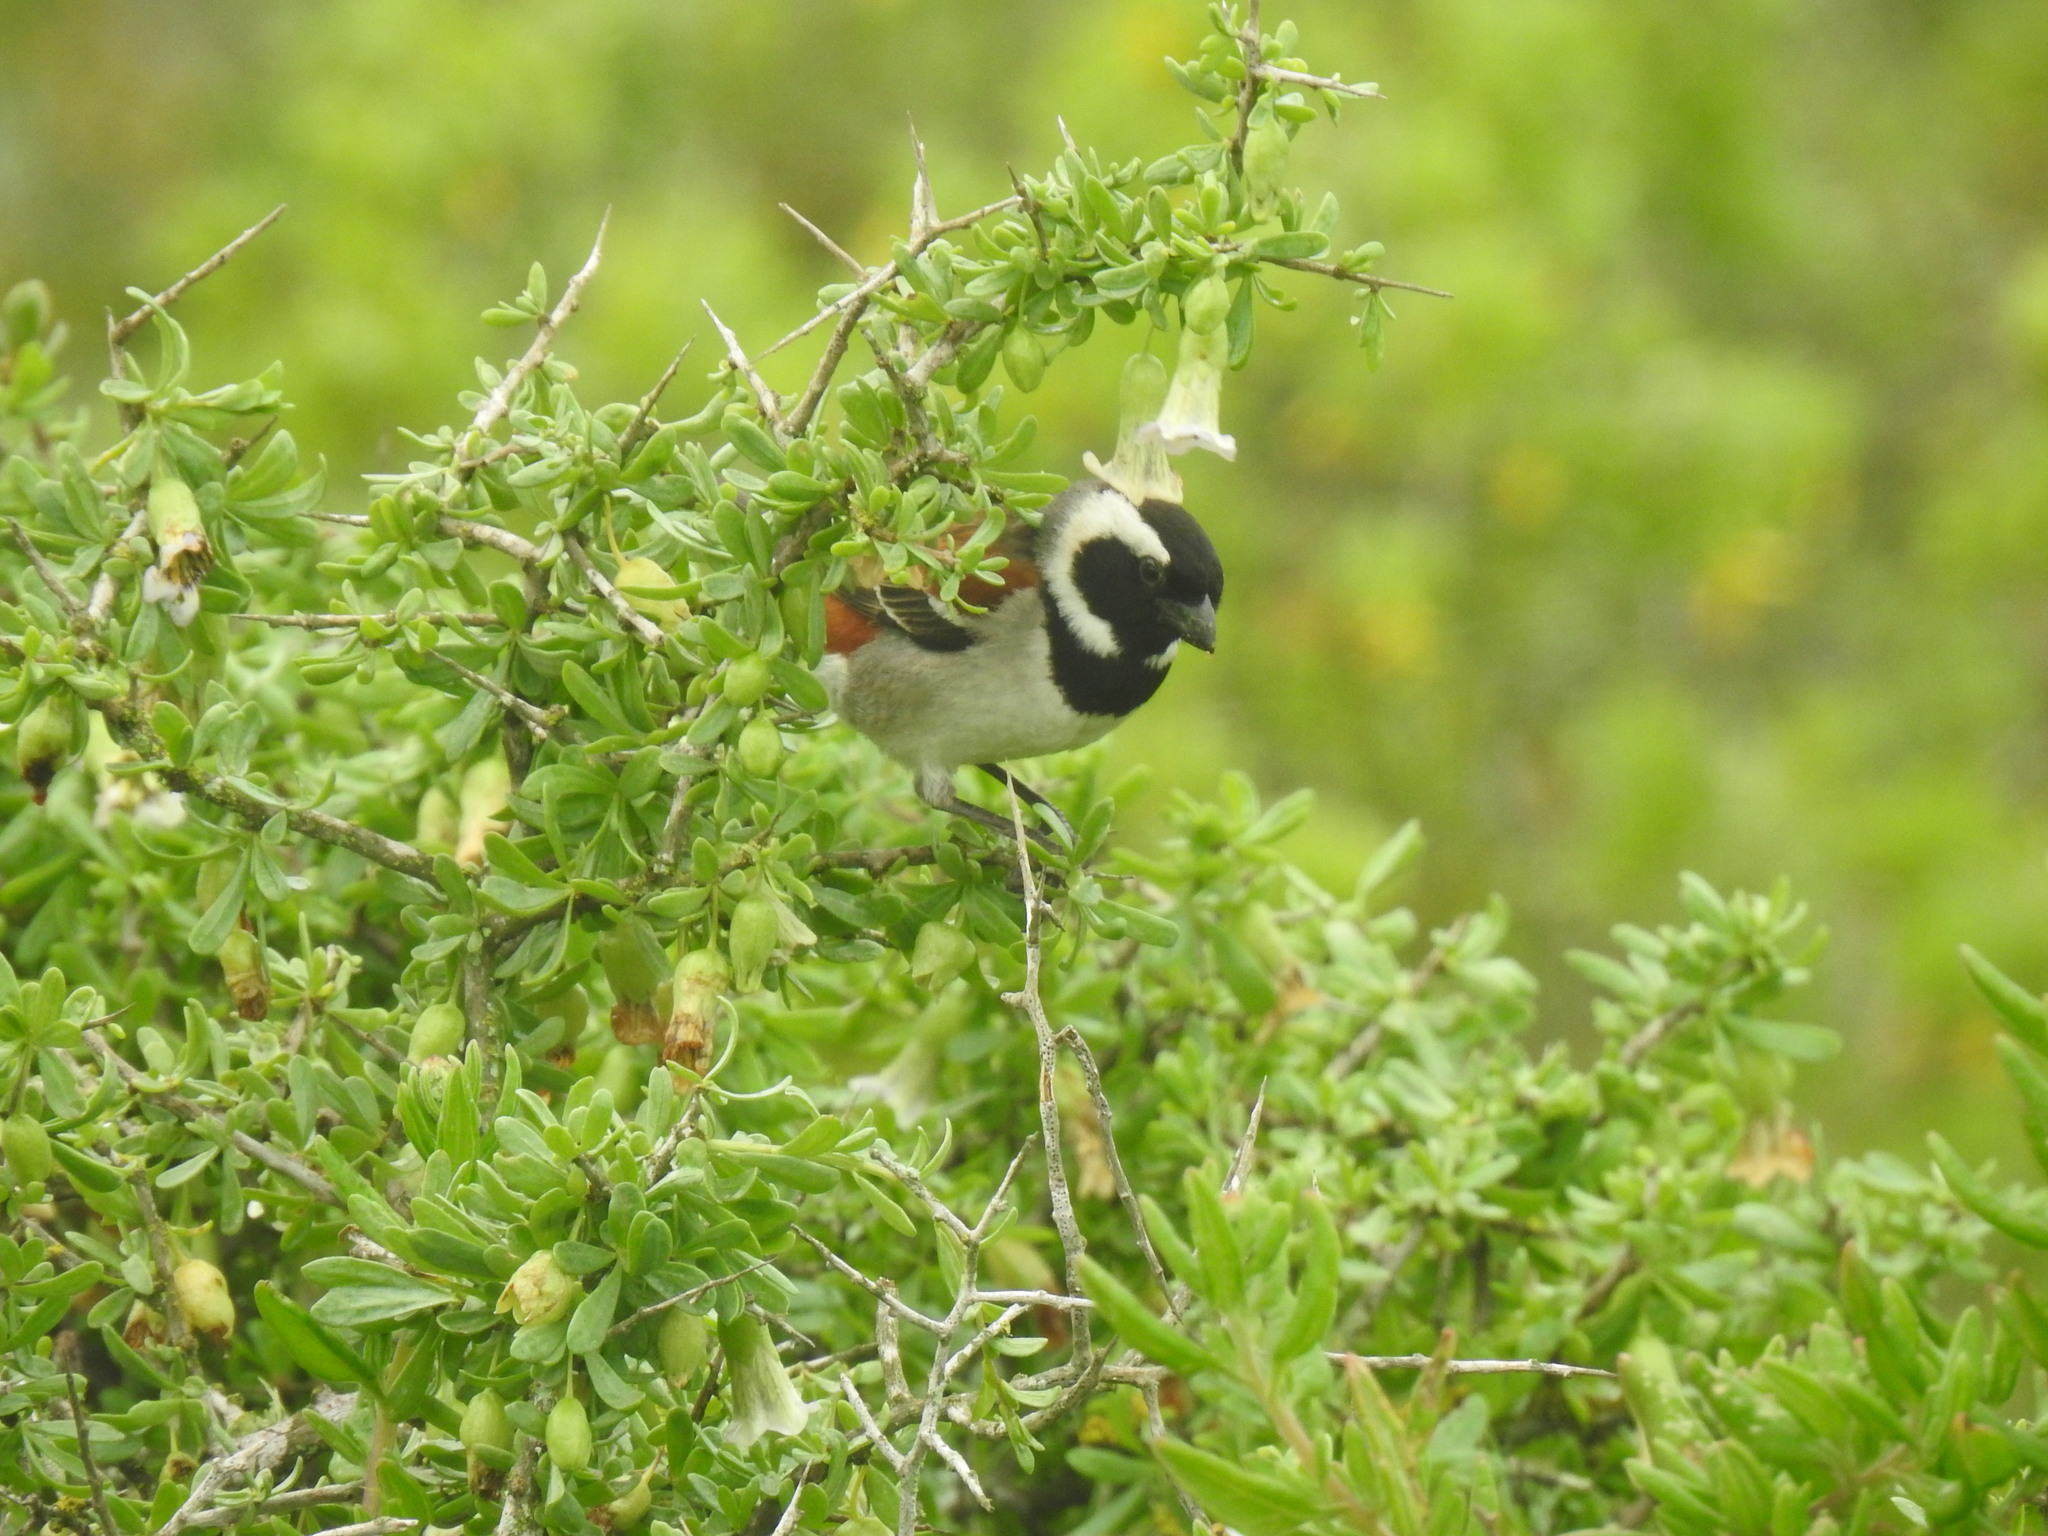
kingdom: Animalia
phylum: Chordata
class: Aves
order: Passeriformes
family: Passeridae
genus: Passer
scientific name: Passer melanurus
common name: Cape sparrow
